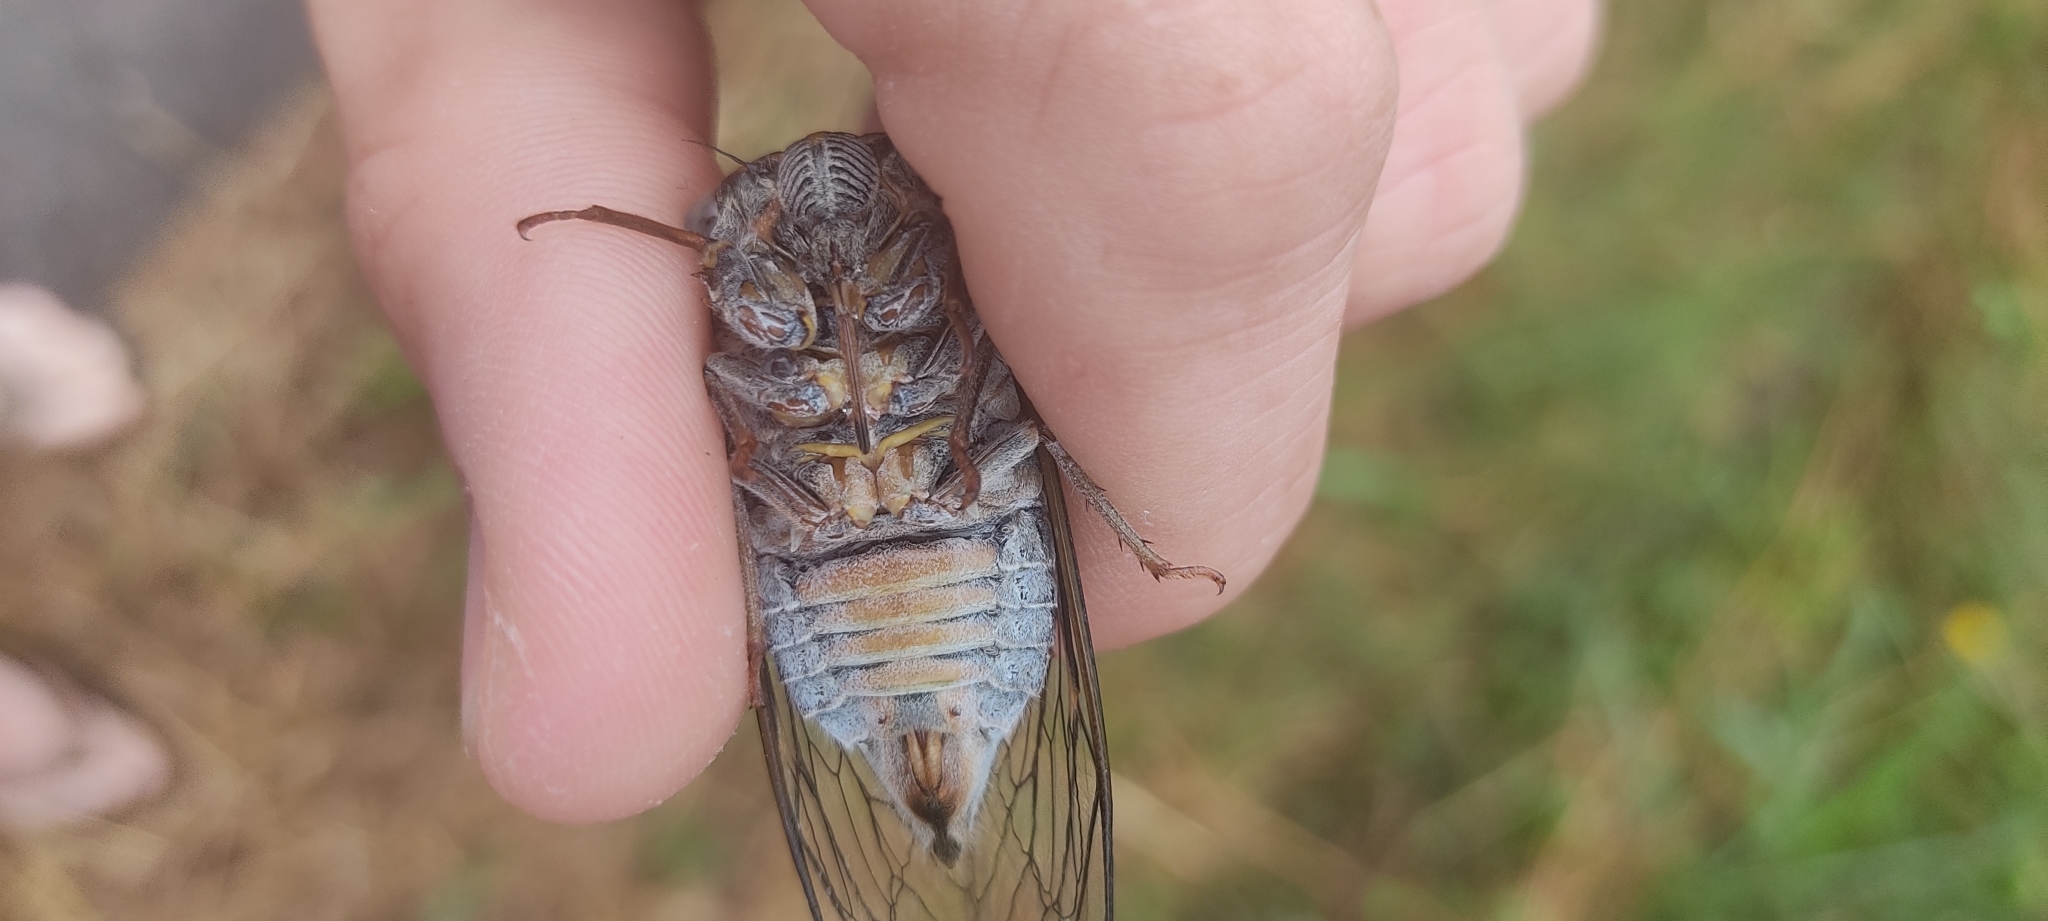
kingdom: Animalia
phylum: Arthropoda
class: Insecta
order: Hemiptera
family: Cicadidae
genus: Lyristes
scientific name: Lyristes plebejus
